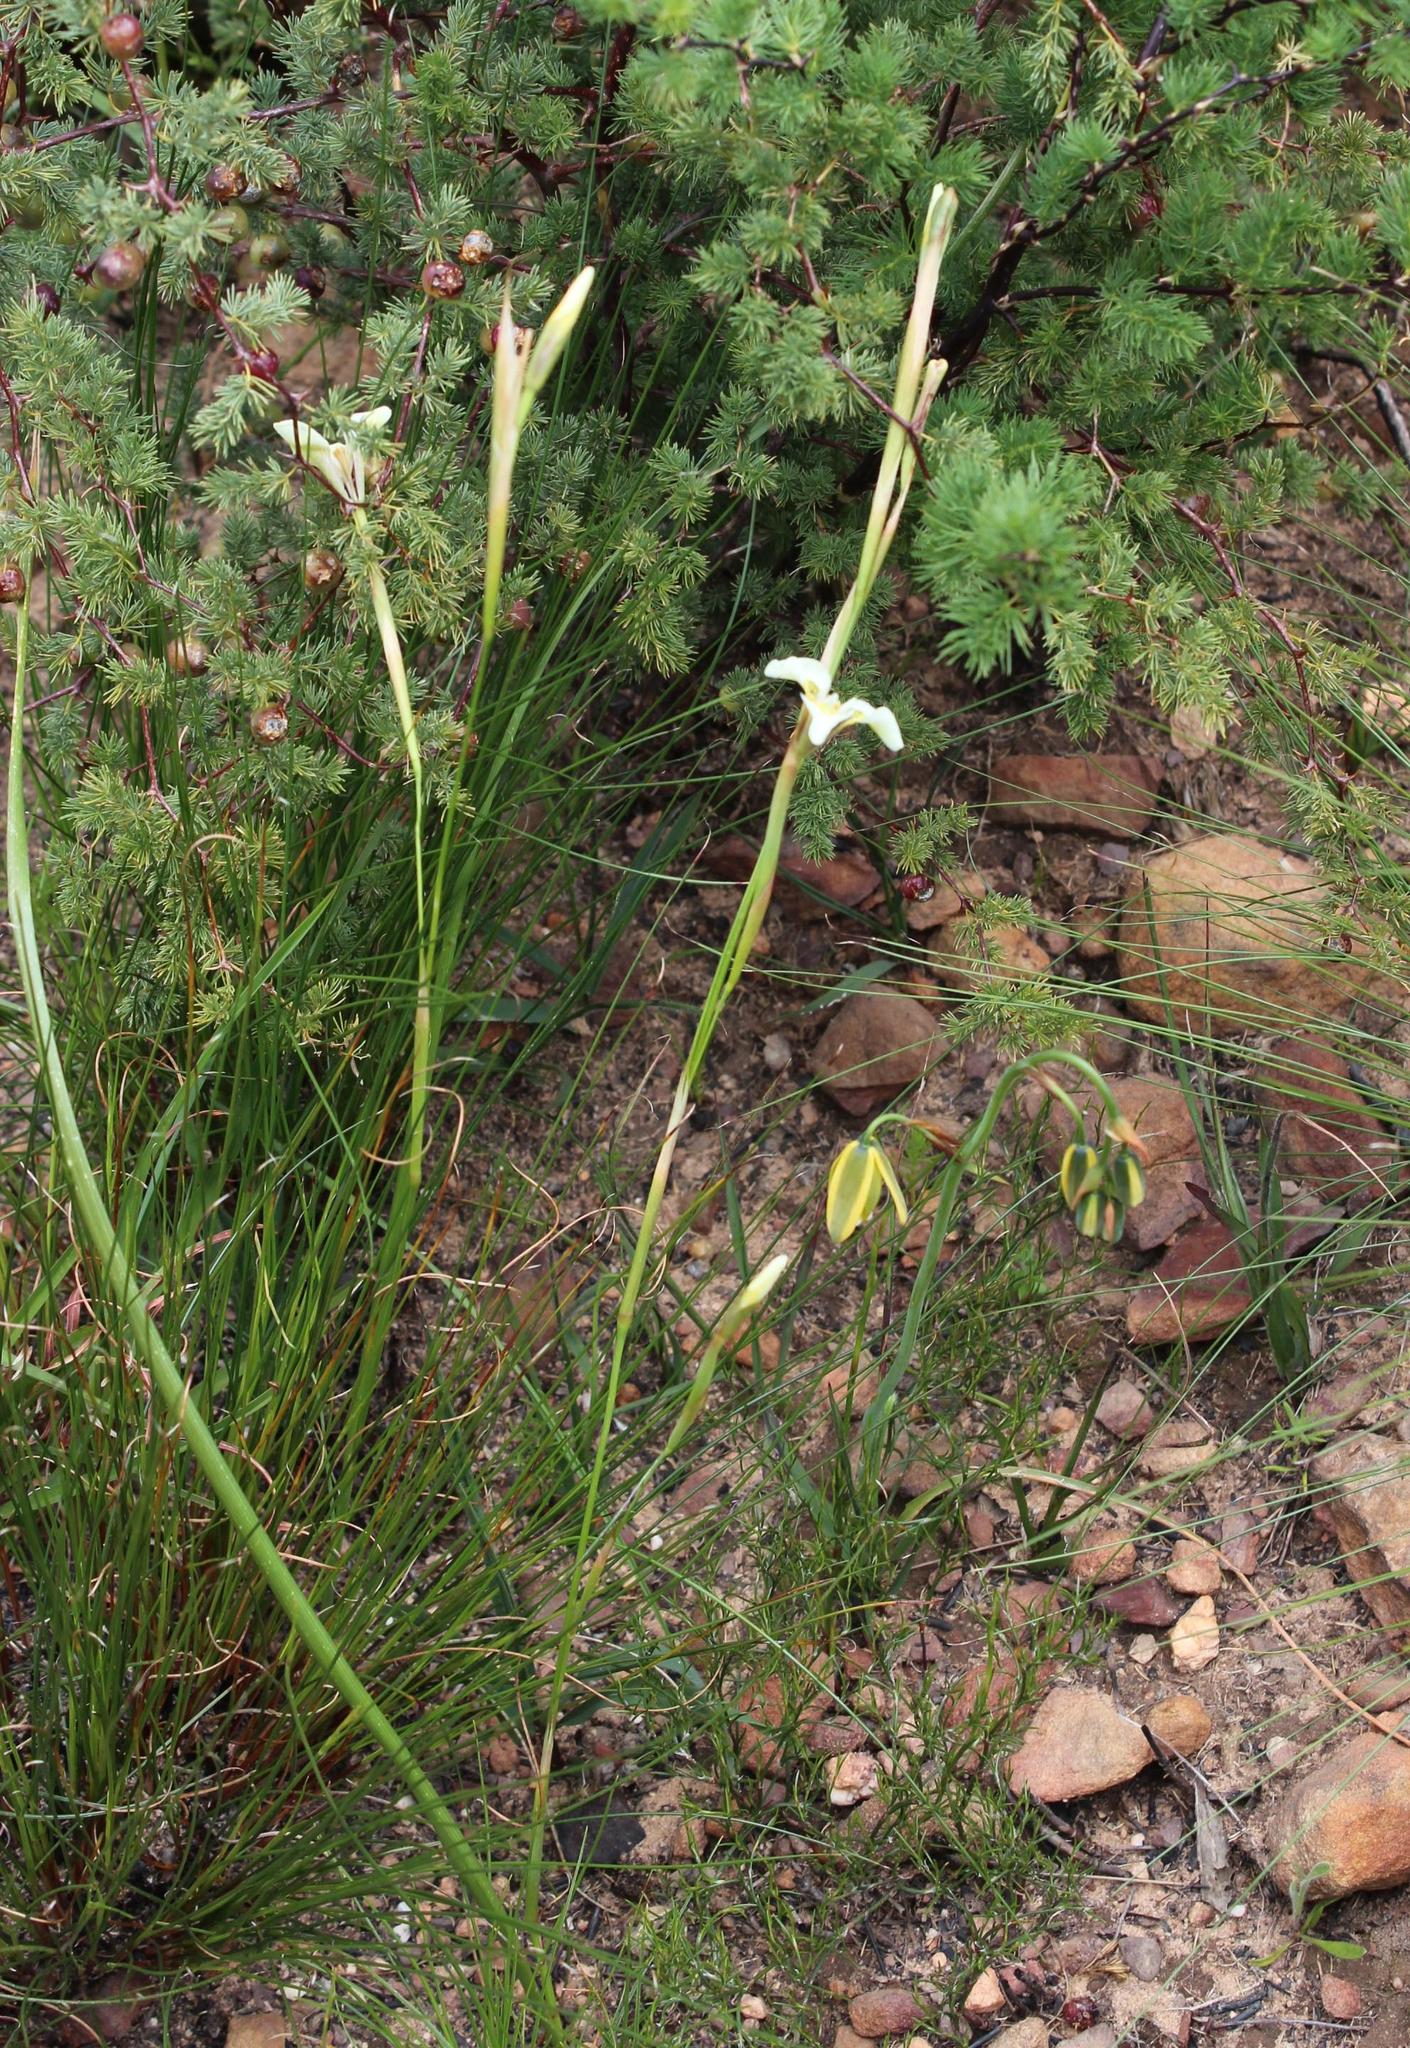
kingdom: Plantae
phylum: Tracheophyta
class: Liliopsida
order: Asparagales
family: Iridaceae
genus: Moraea
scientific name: Moraea tricuspidata
